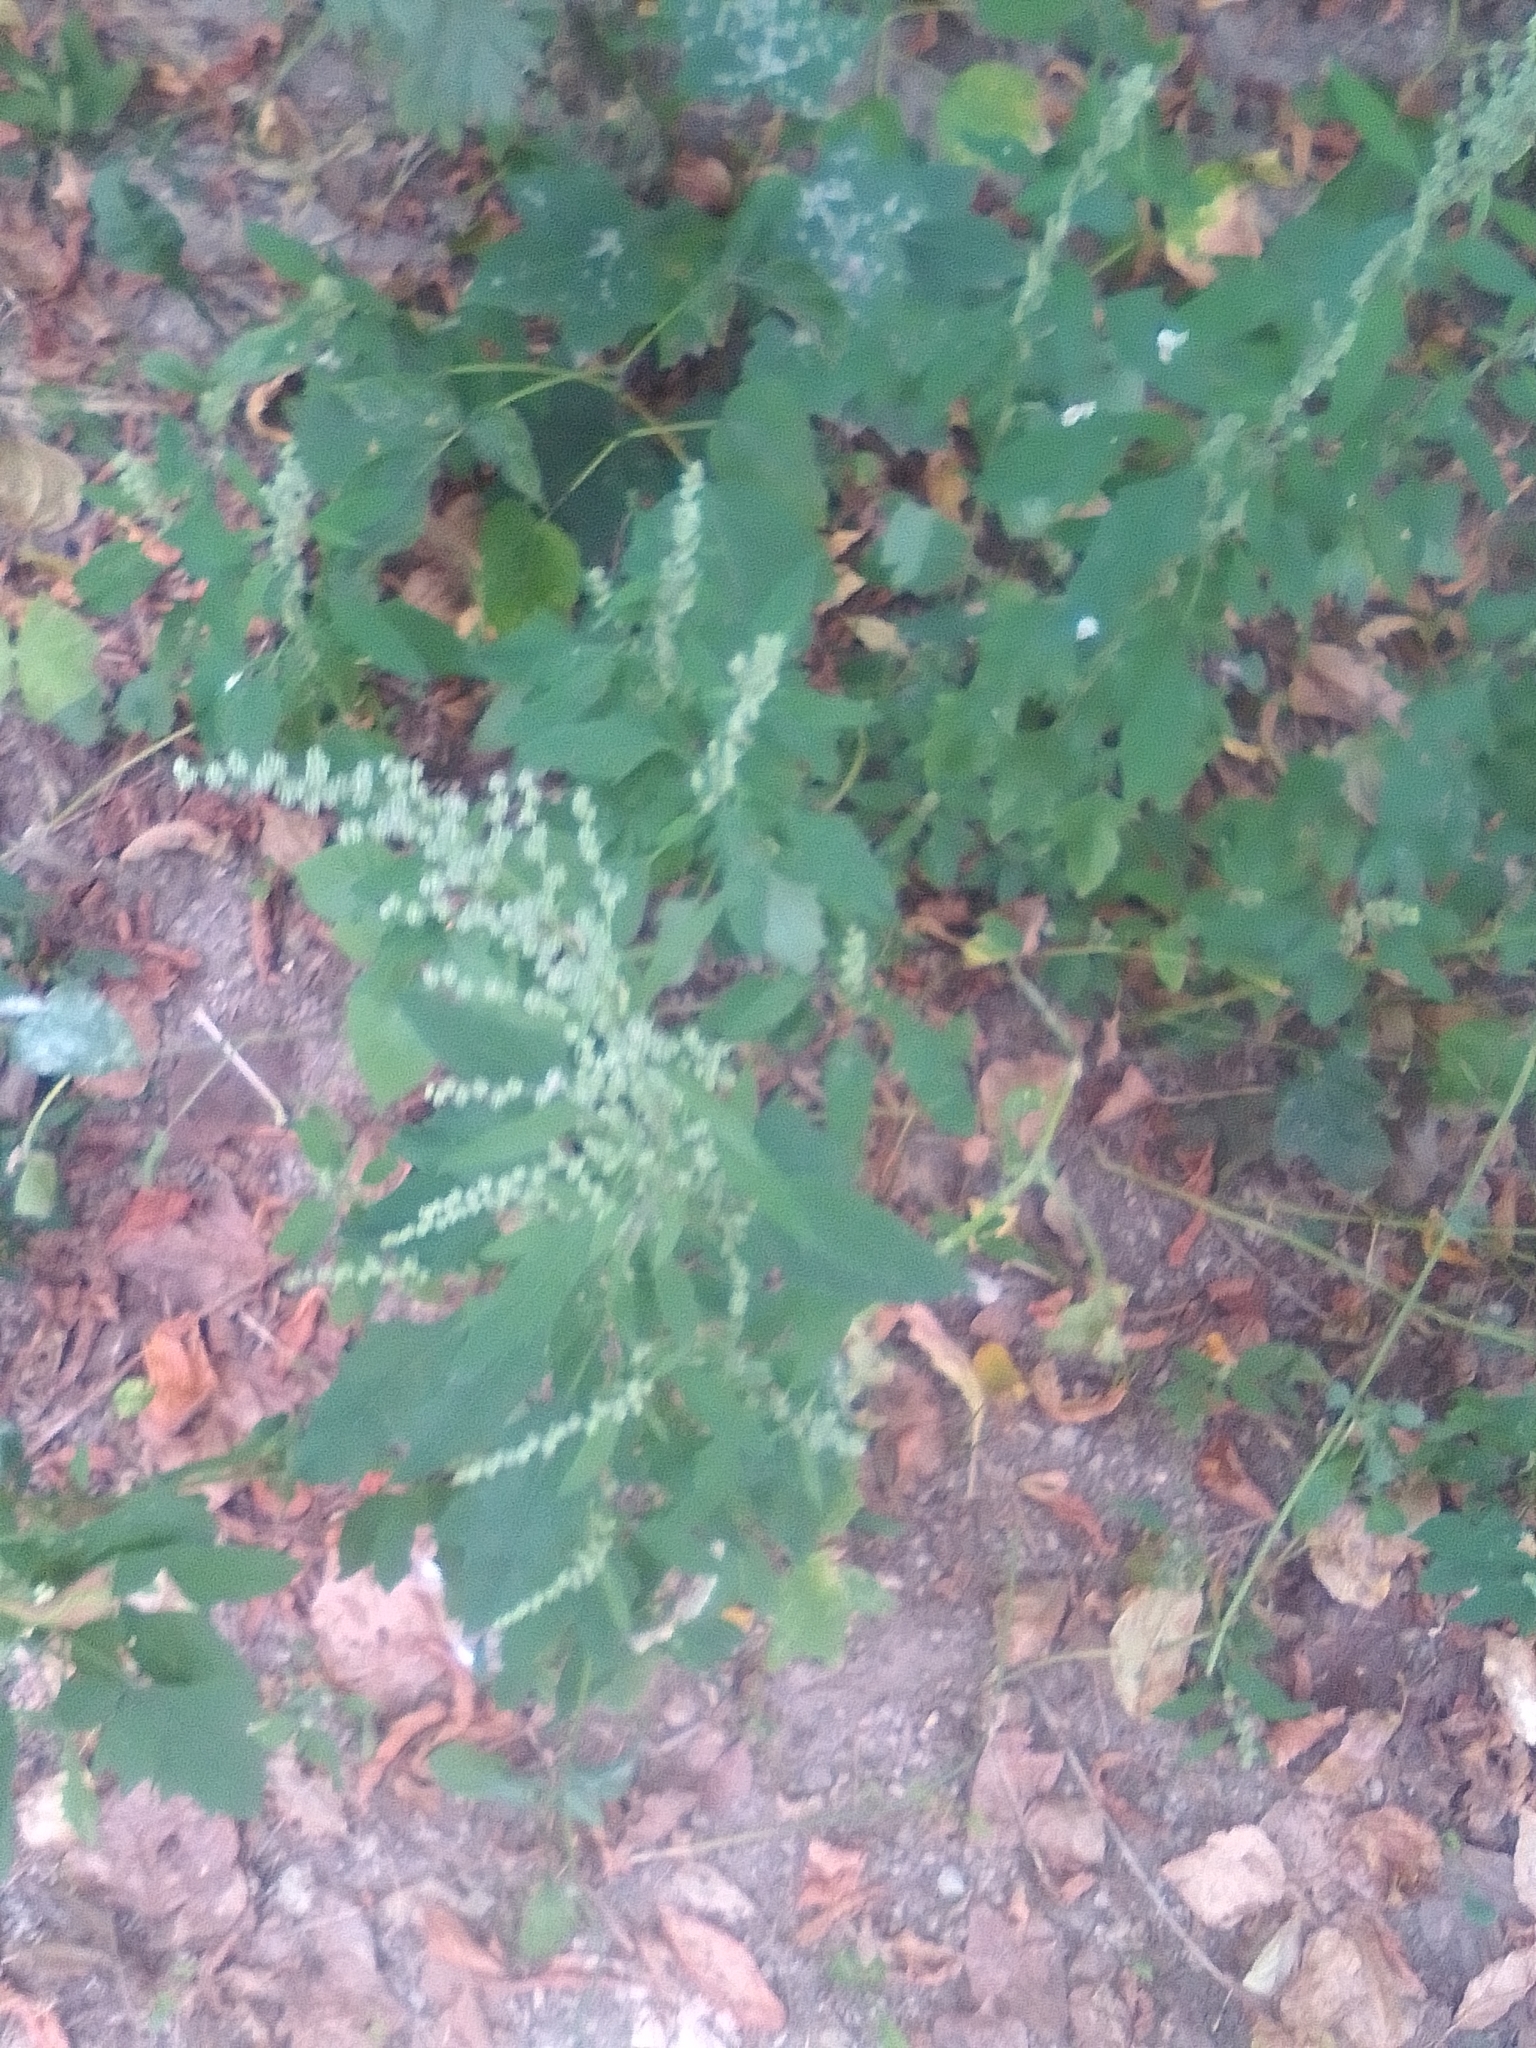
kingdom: Plantae
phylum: Tracheophyta
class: Magnoliopsida
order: Caryophyllales
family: Amaranthaceae
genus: Chenopodium
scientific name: Chenopodium album
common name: Fat-hen
